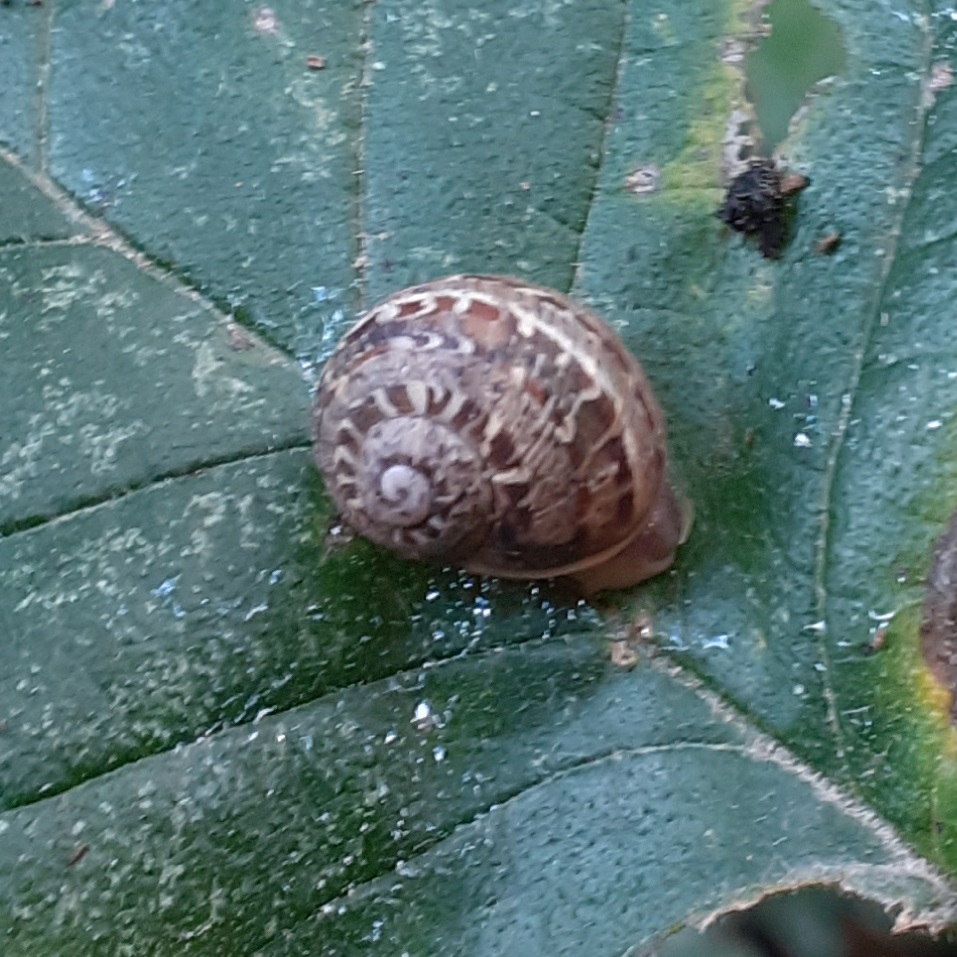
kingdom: Animalia
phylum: Mollusca
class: Gastropoda
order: Stylommatophora
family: Helicidae
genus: Cornu
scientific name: Cornu aspersum
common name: Brown garden snail
